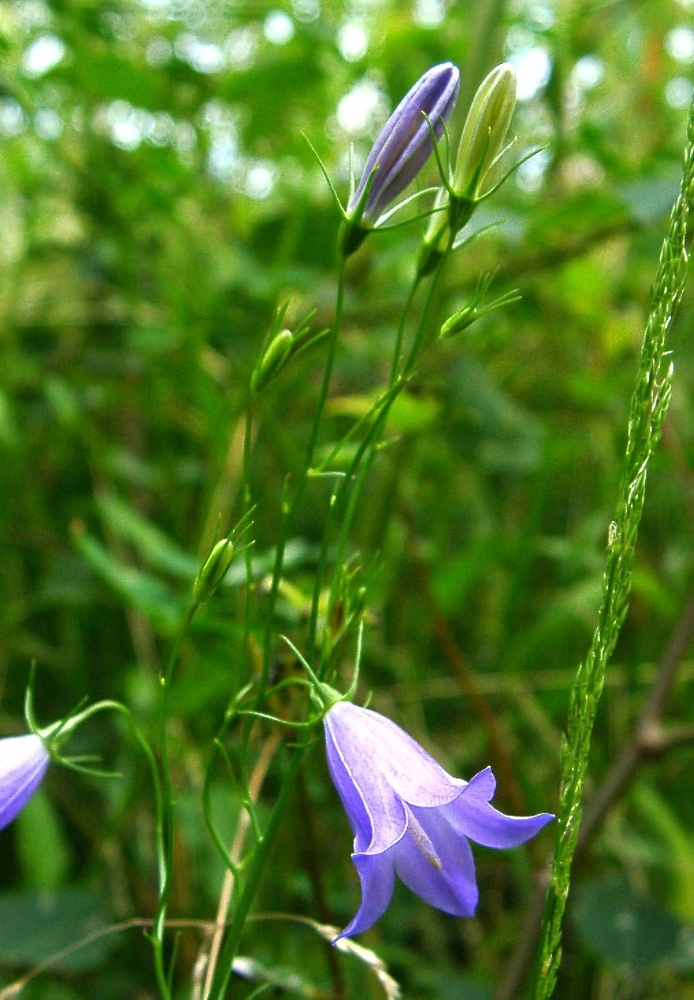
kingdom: Plantae
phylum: Tracheophyta
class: Magnoliopsida
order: Asterales
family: Campanulaceae
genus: Campanula
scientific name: Campanula rotundifolia
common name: Harebell
